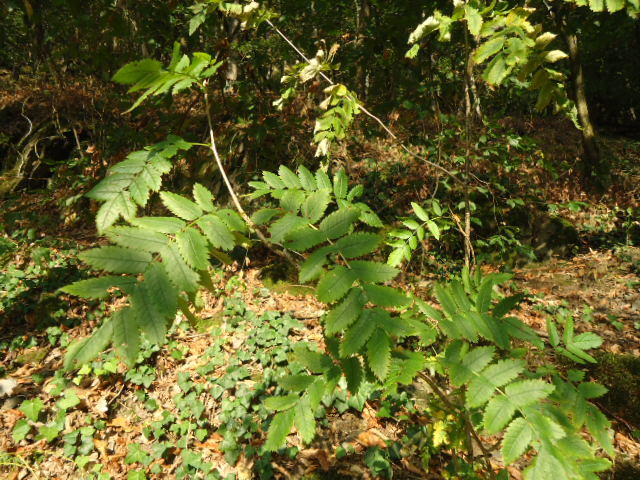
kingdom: Plantae
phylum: Tracheophyta
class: Magnoliopsida
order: Rosales
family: Rosaceae
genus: Sorbus
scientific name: Sorbus aucuparia
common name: Rowan
